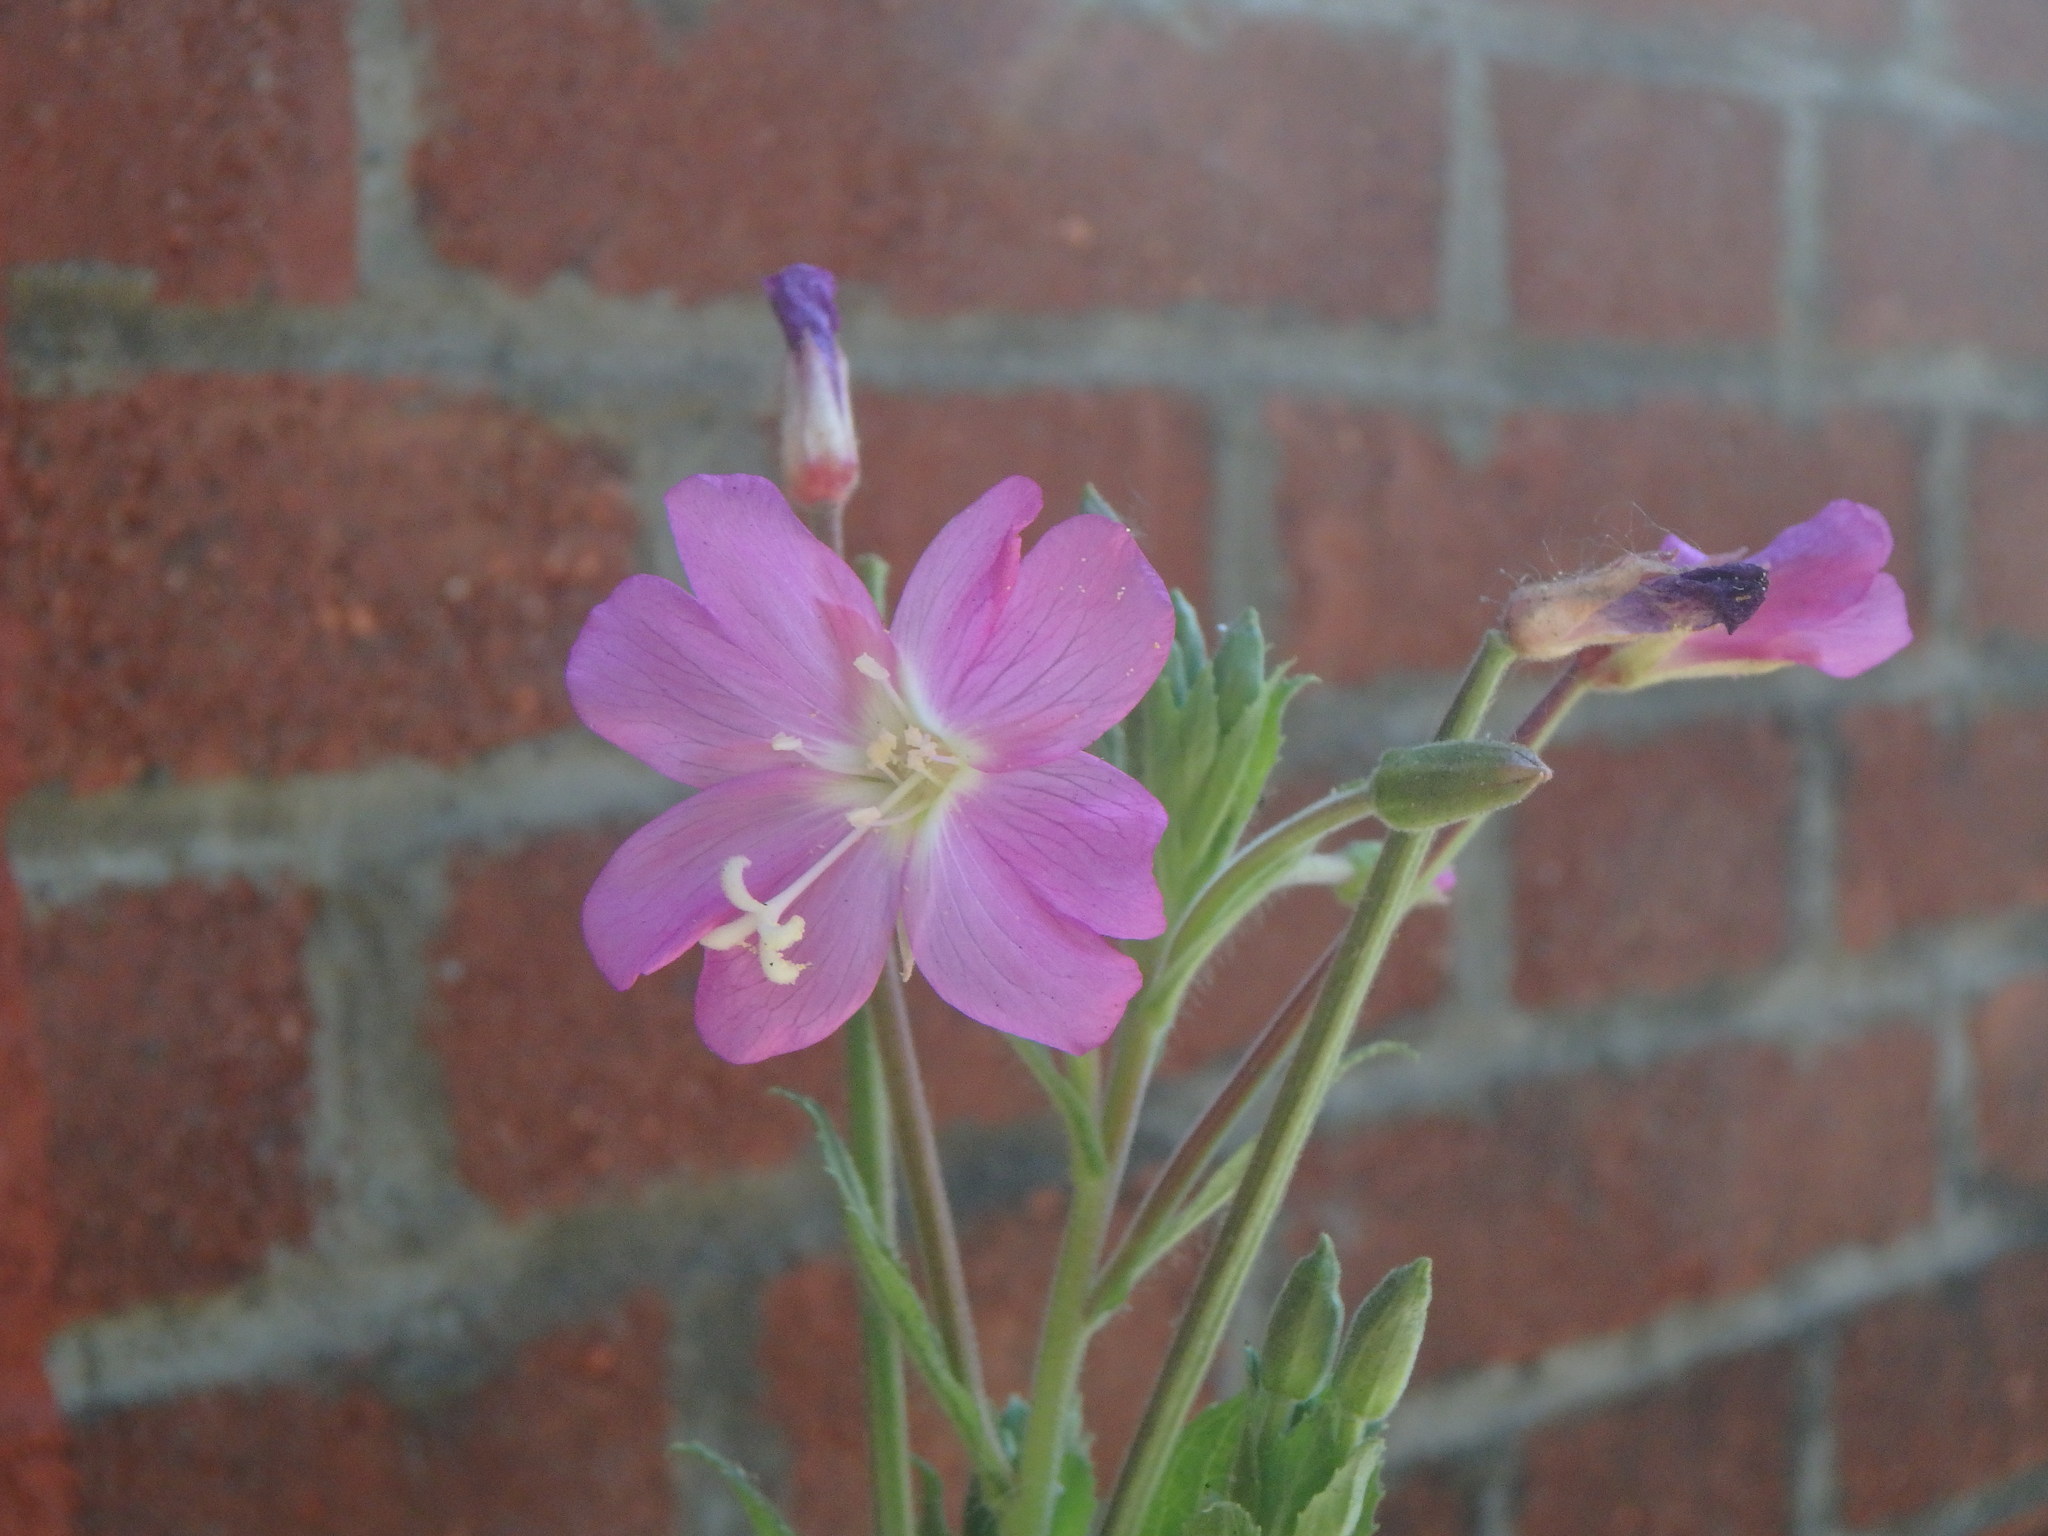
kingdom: Plantae
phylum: Tracheophyta
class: Magnoliopsida
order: Myrtales
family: Onagraceae
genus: Epilobium
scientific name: Epilobium hirsutum
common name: Great willowherb
